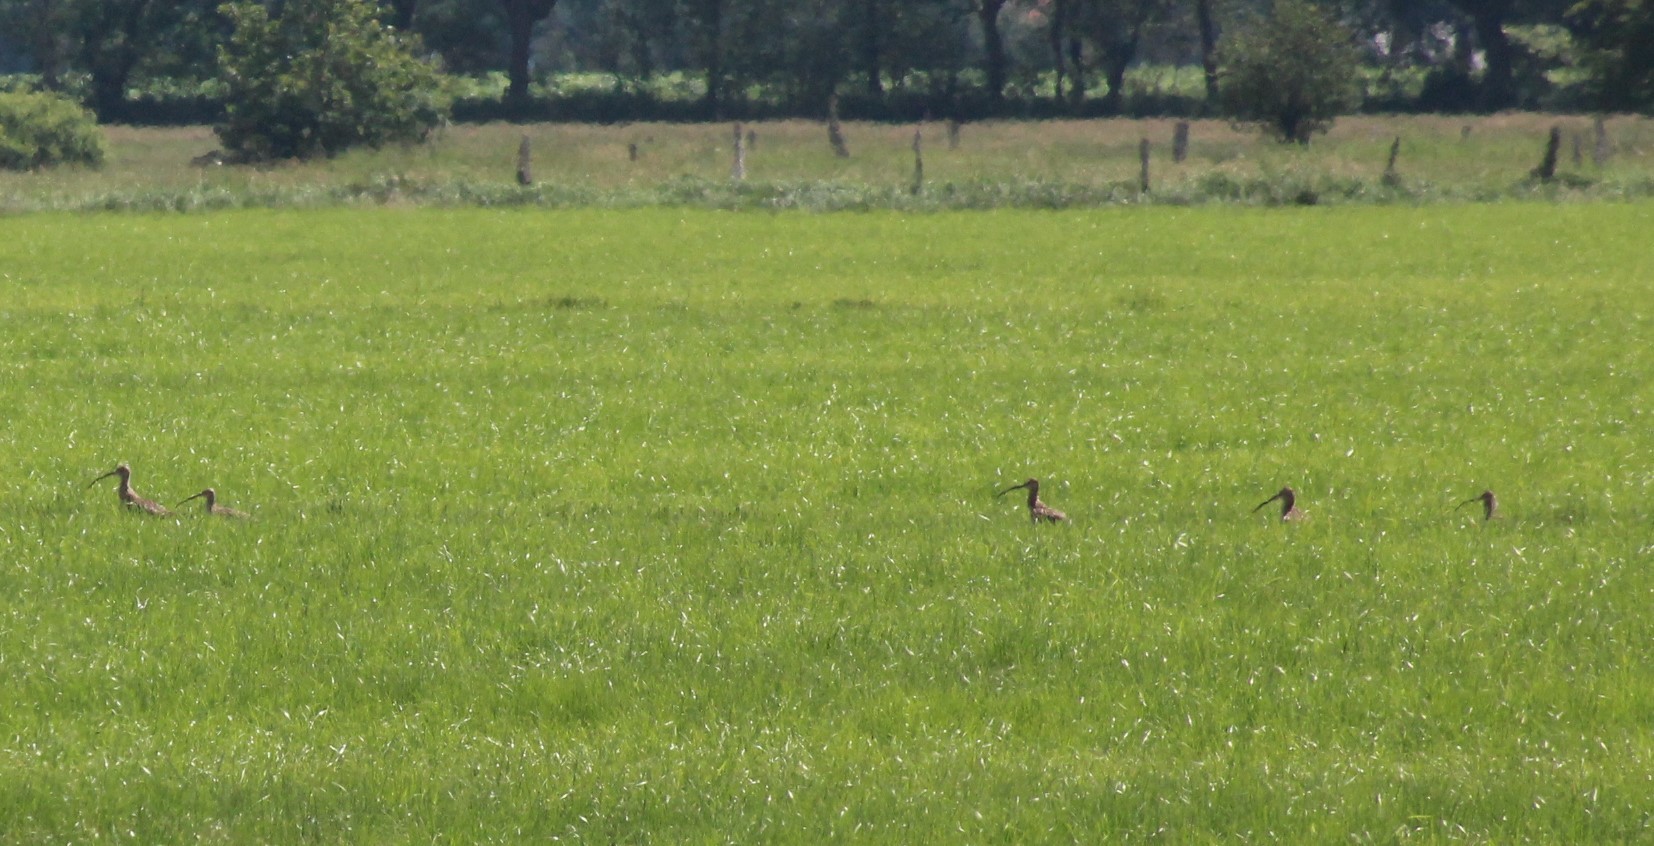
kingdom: Animalia
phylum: Chordata
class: Aves
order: Charadriiformes
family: Scolopacidae
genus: Numenius
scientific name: Numenius arquata
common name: Eurasian curlew
